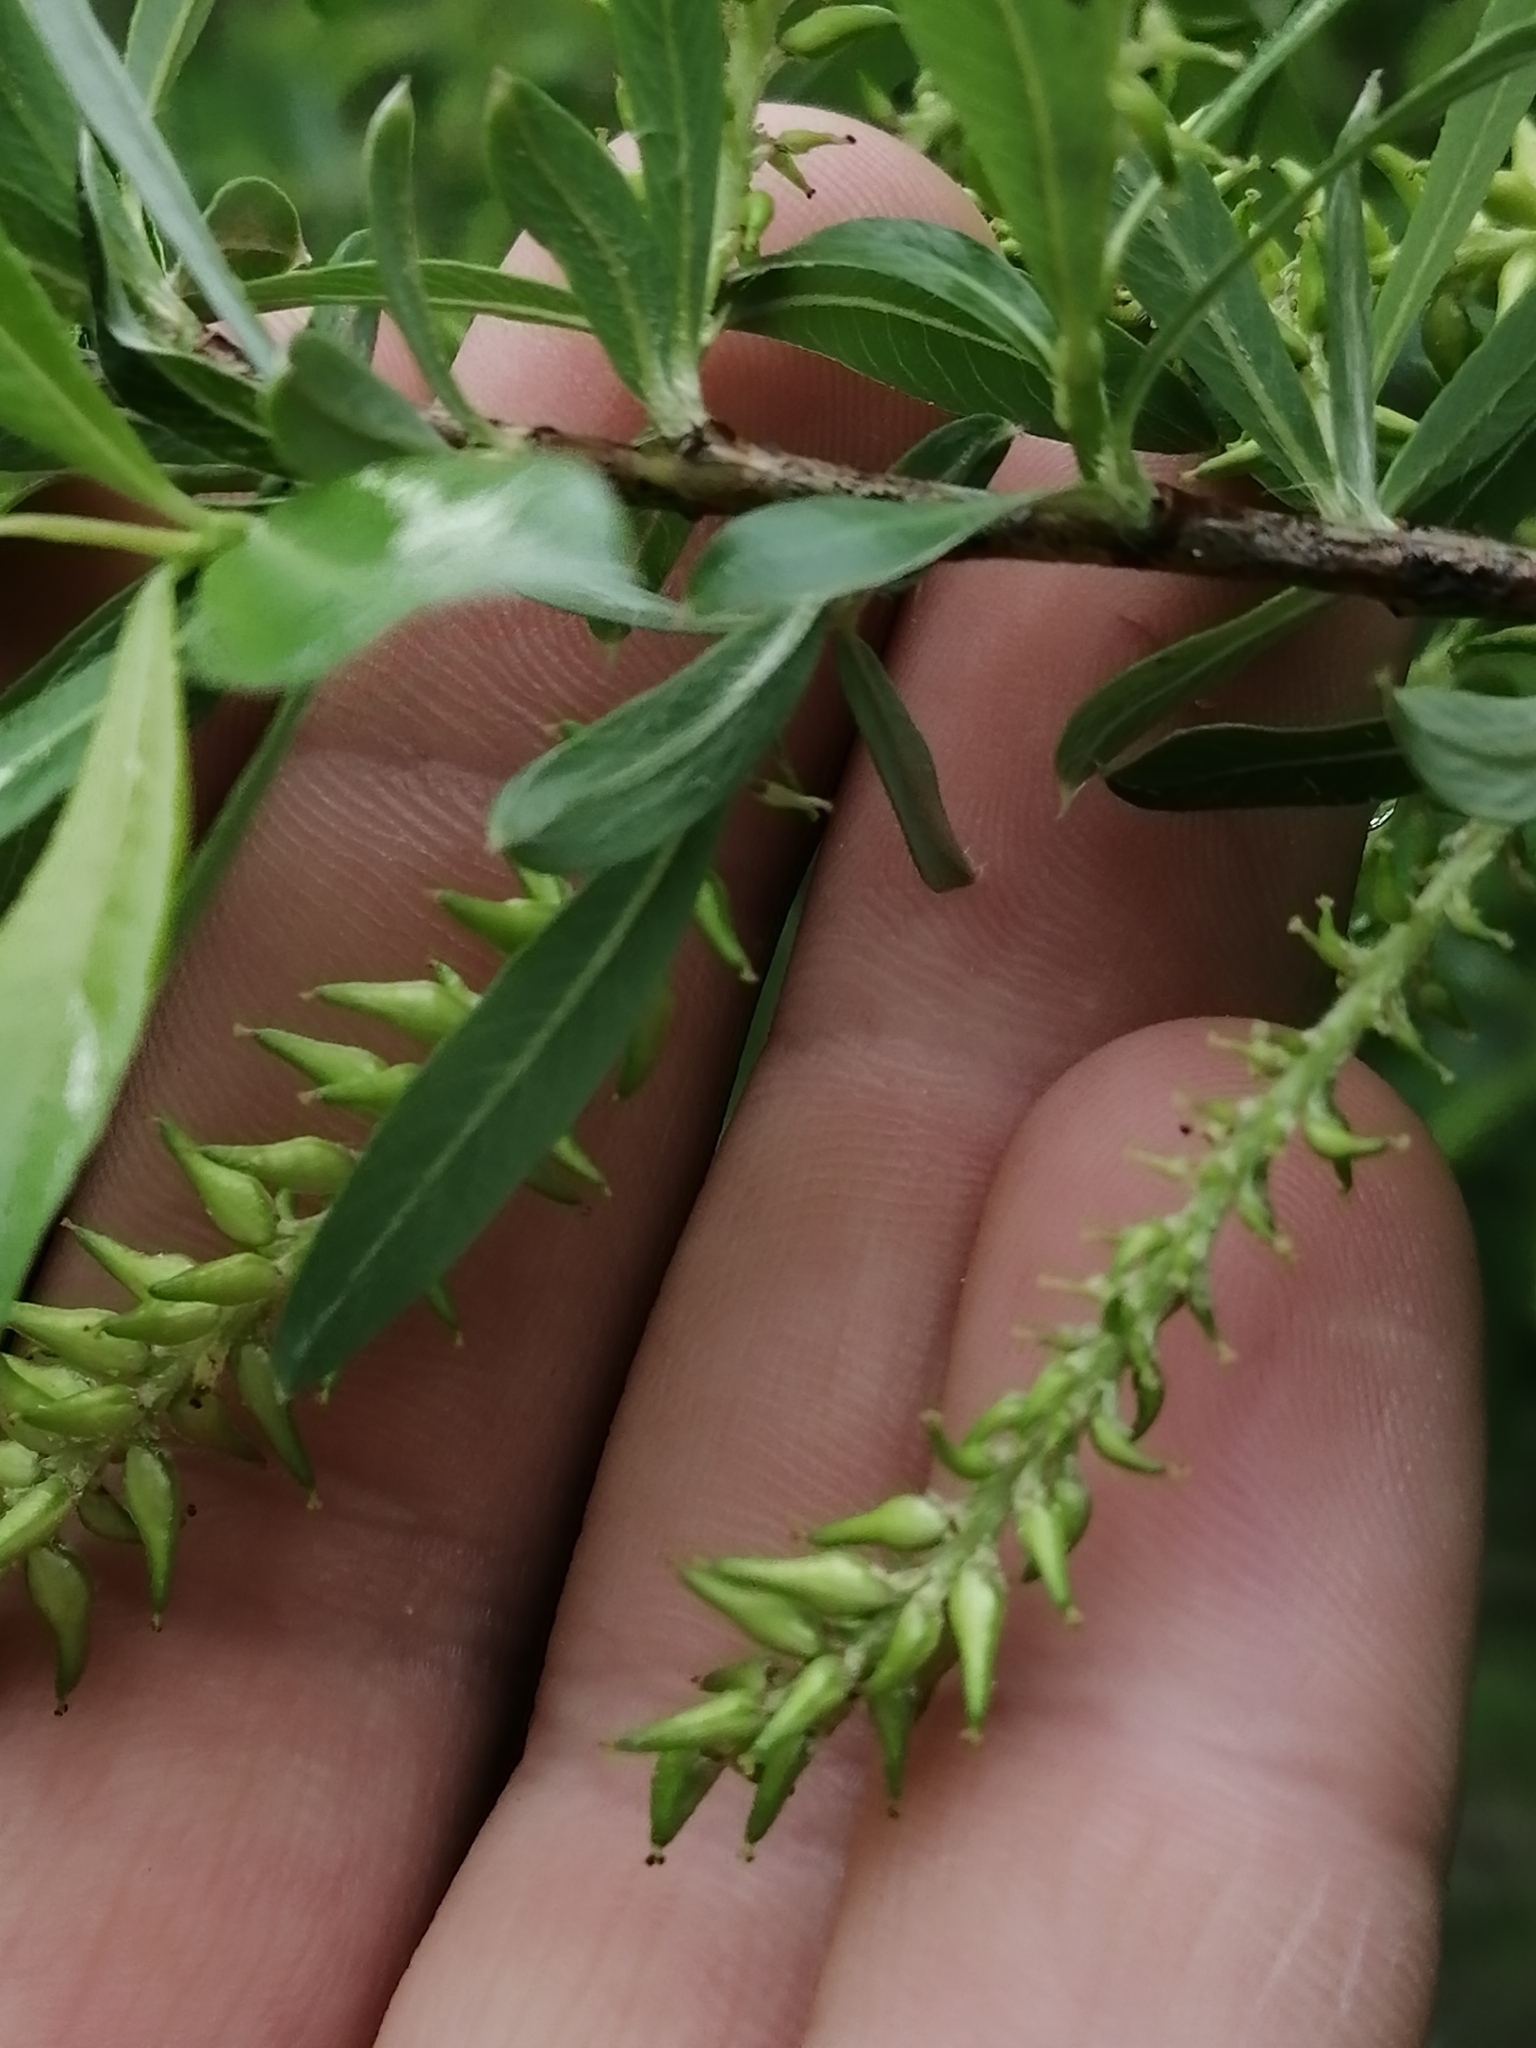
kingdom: Plantae
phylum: Tracheophyta
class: Magnoliopsida
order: Malpighiales
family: Salicaceae
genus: Salix
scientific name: Salix rhamnifolia
